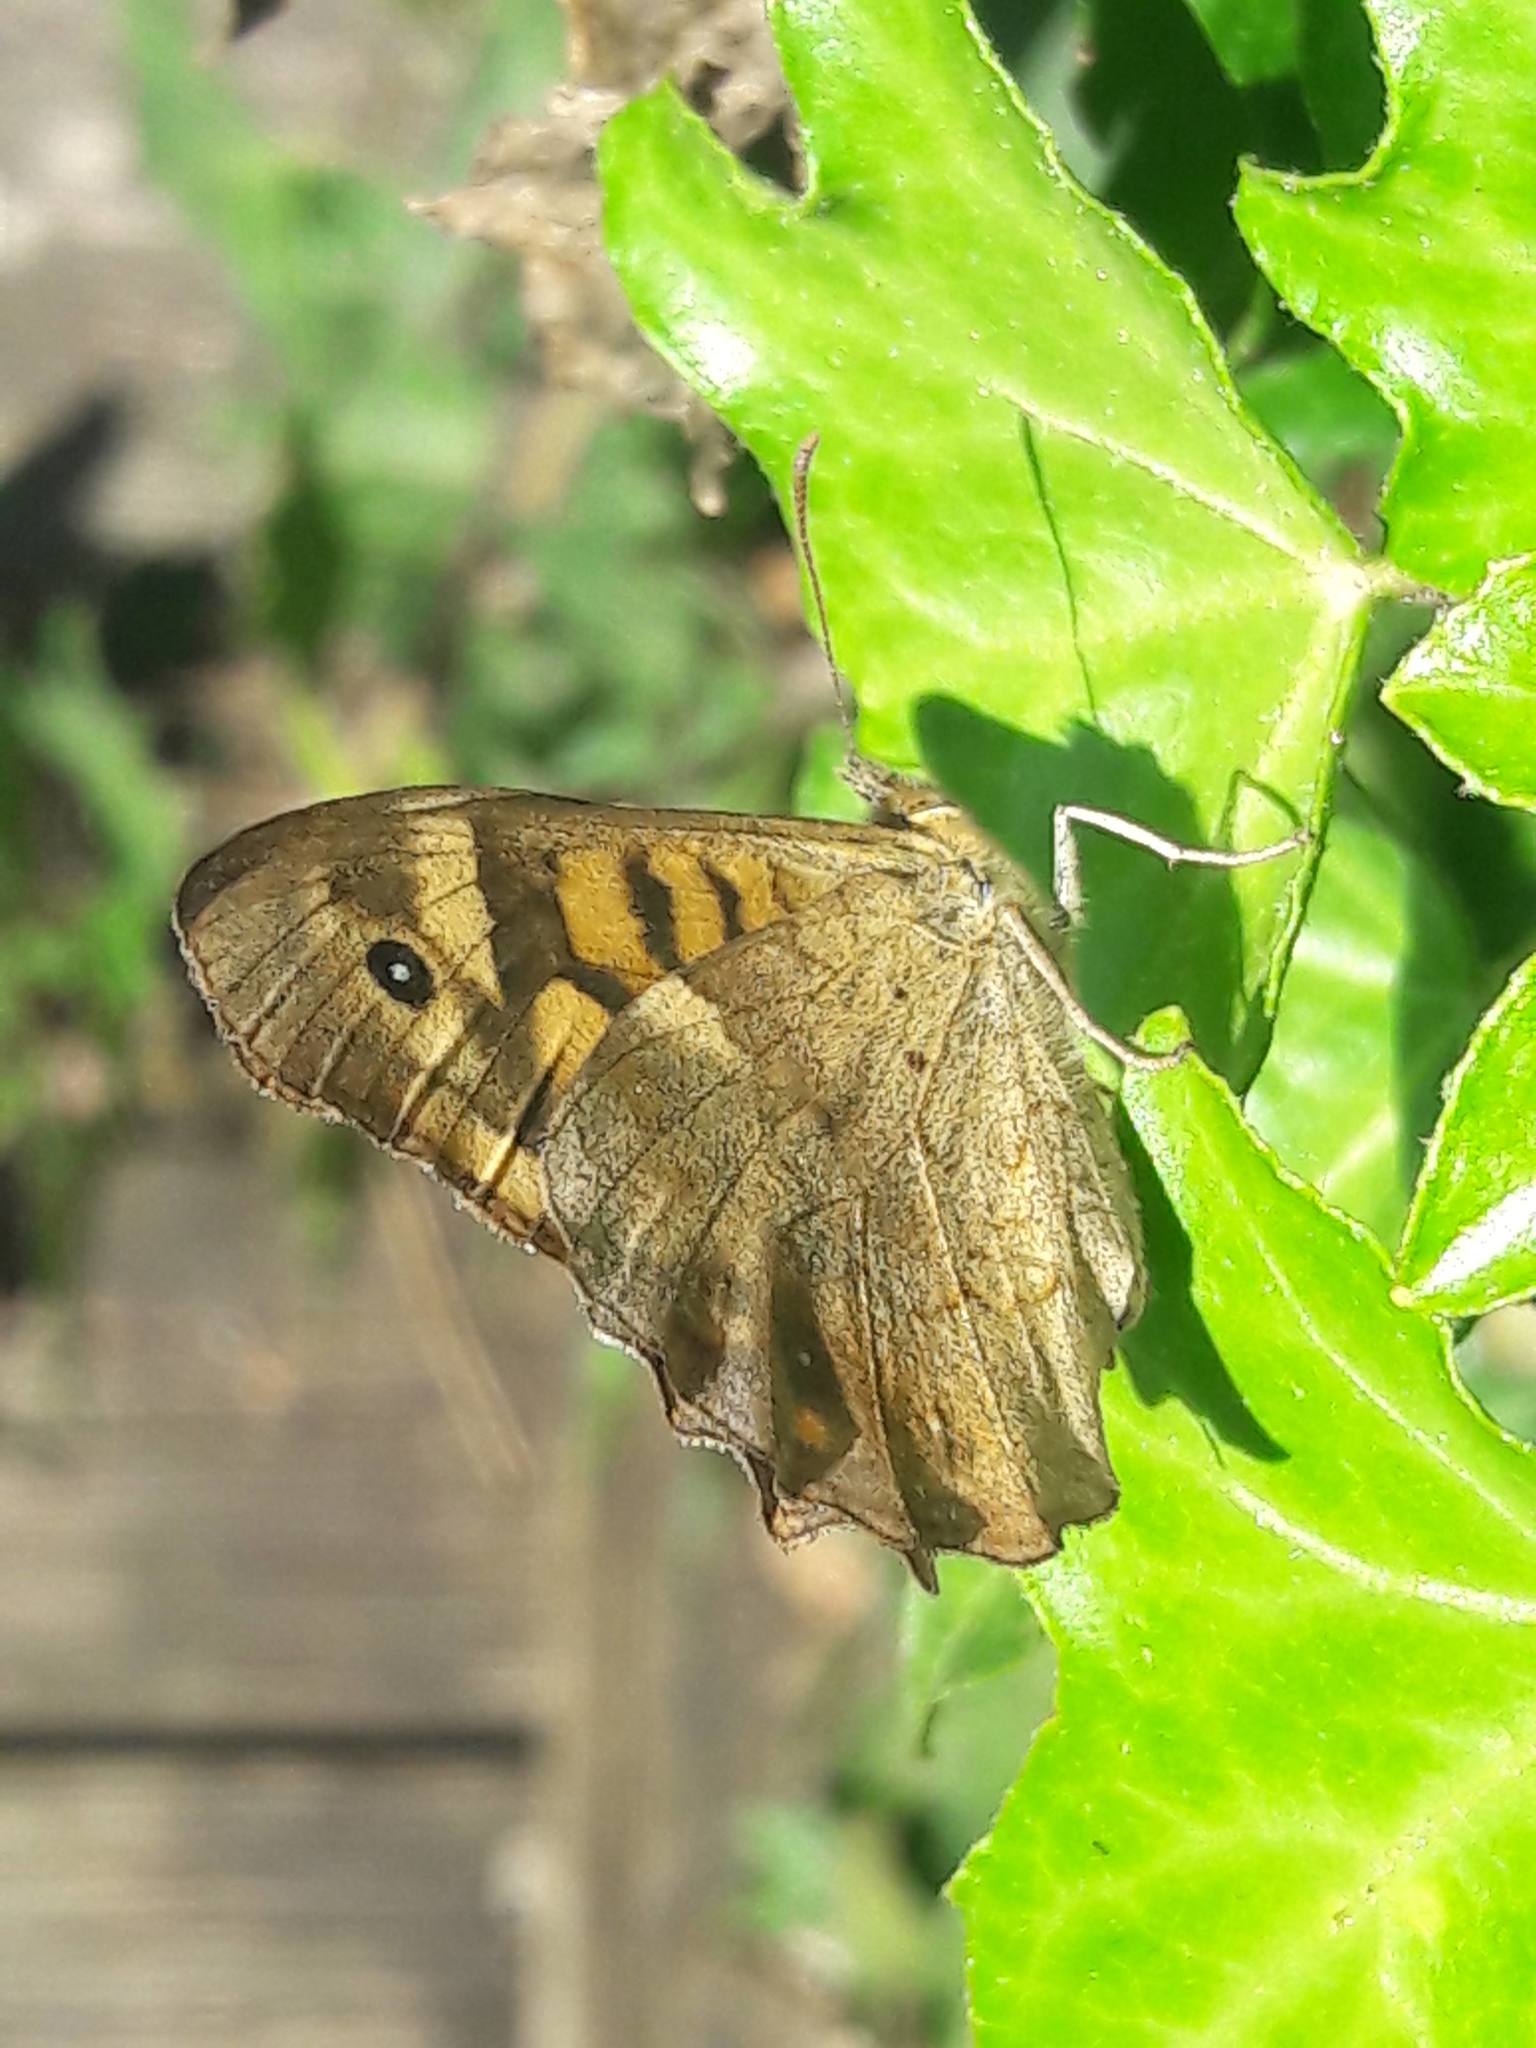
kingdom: Animalia
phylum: Arthropoda
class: Insecta
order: Lepidoptera
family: Nymphalidae
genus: Pararge
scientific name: Pararge aegeria
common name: Speckled wood
